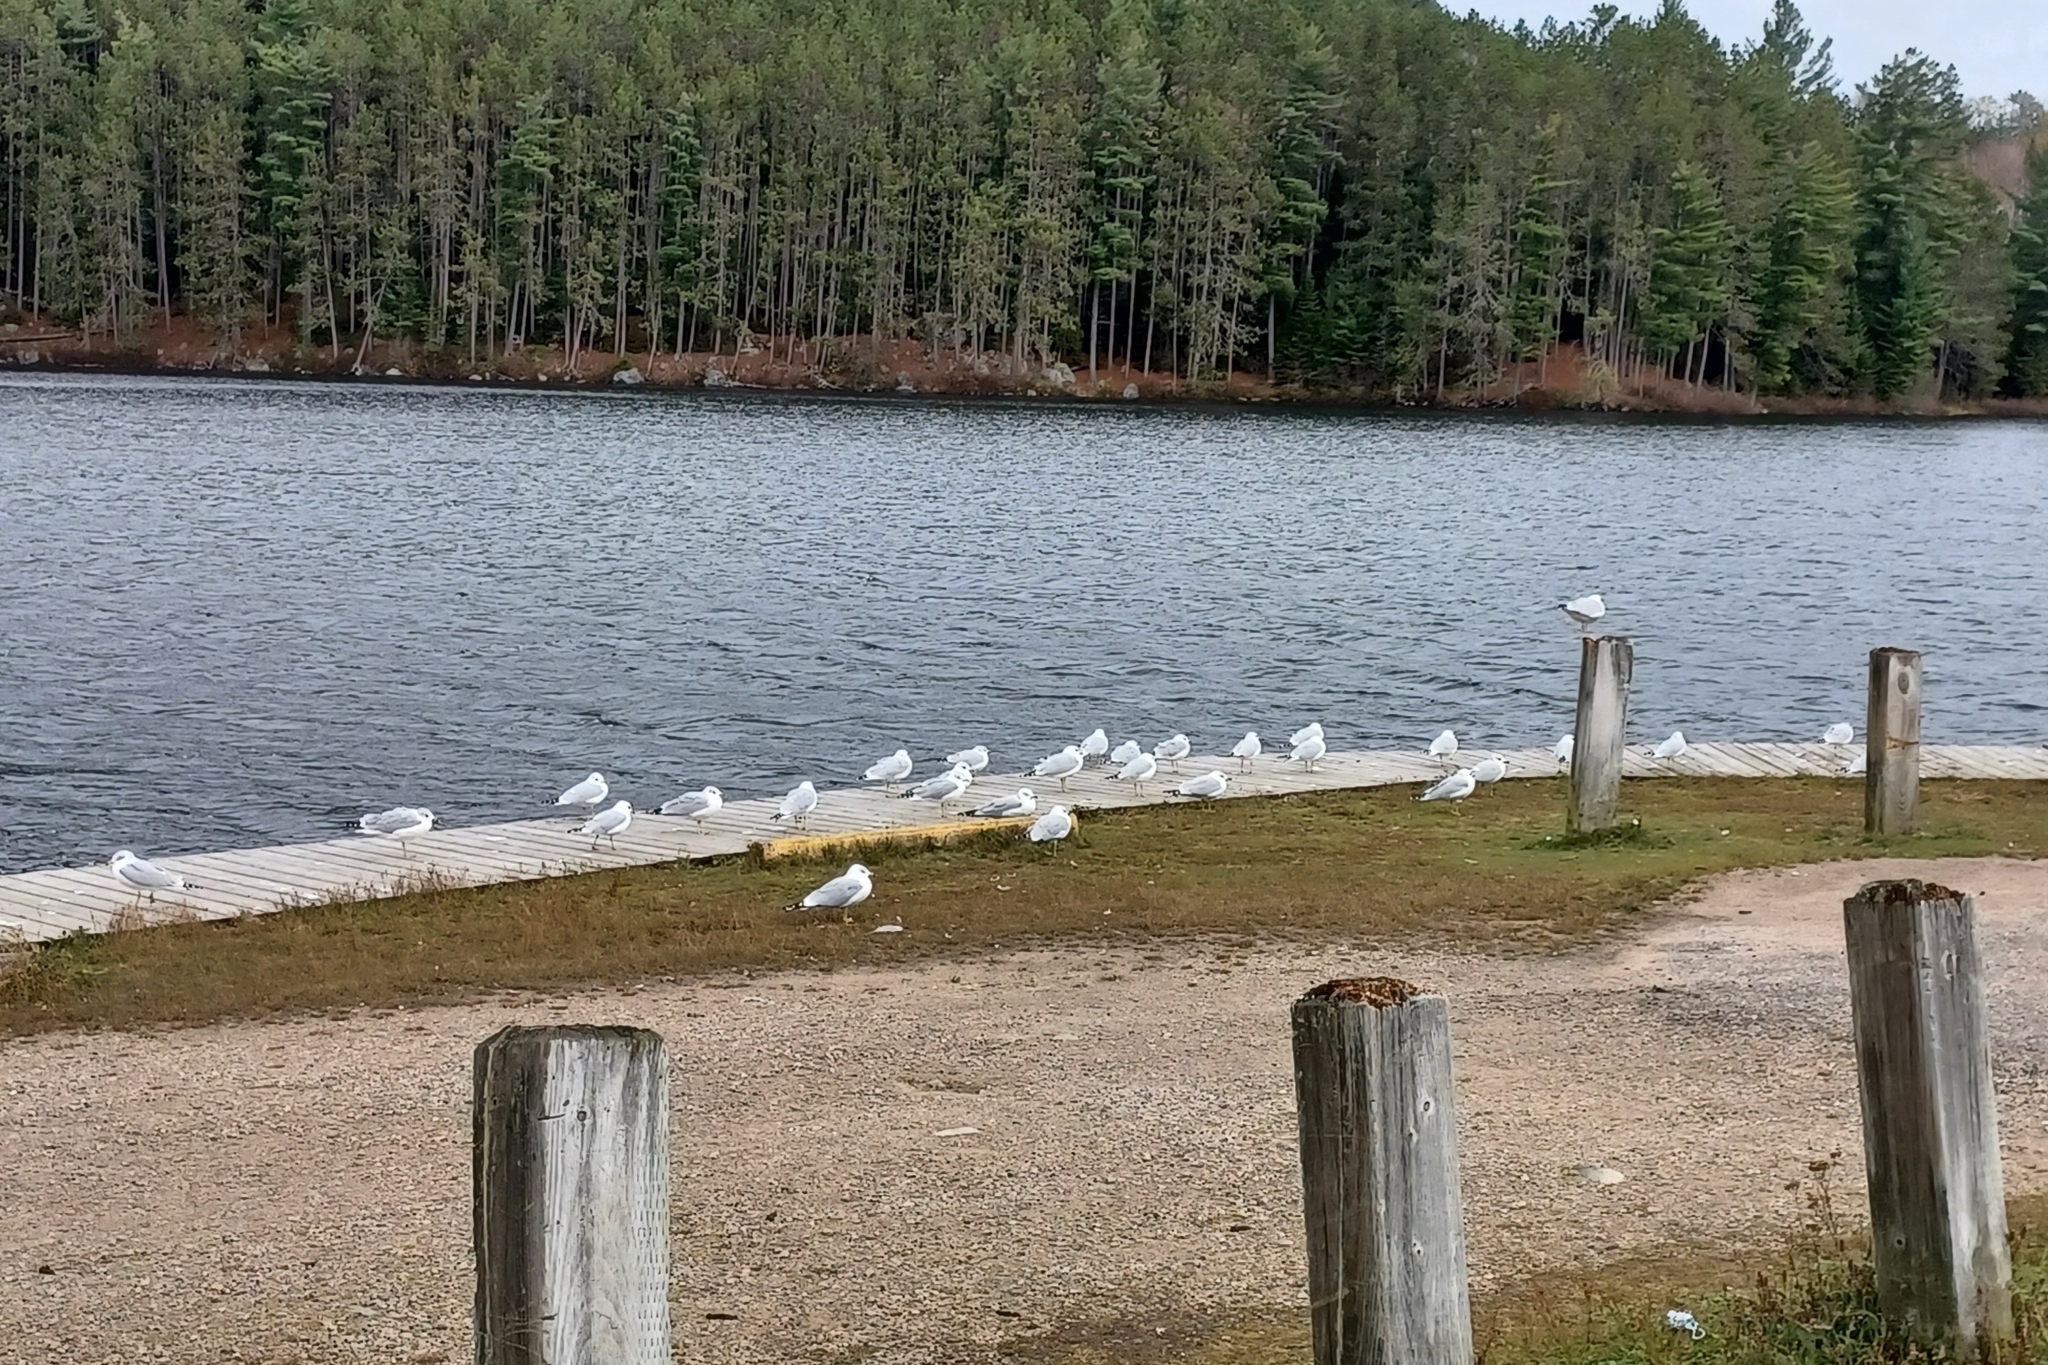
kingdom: Animalia
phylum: Chordata
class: Aves
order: Charadriiformes
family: Laridae
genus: Larus
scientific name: Larus delawarensis
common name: Ring-billed gull
